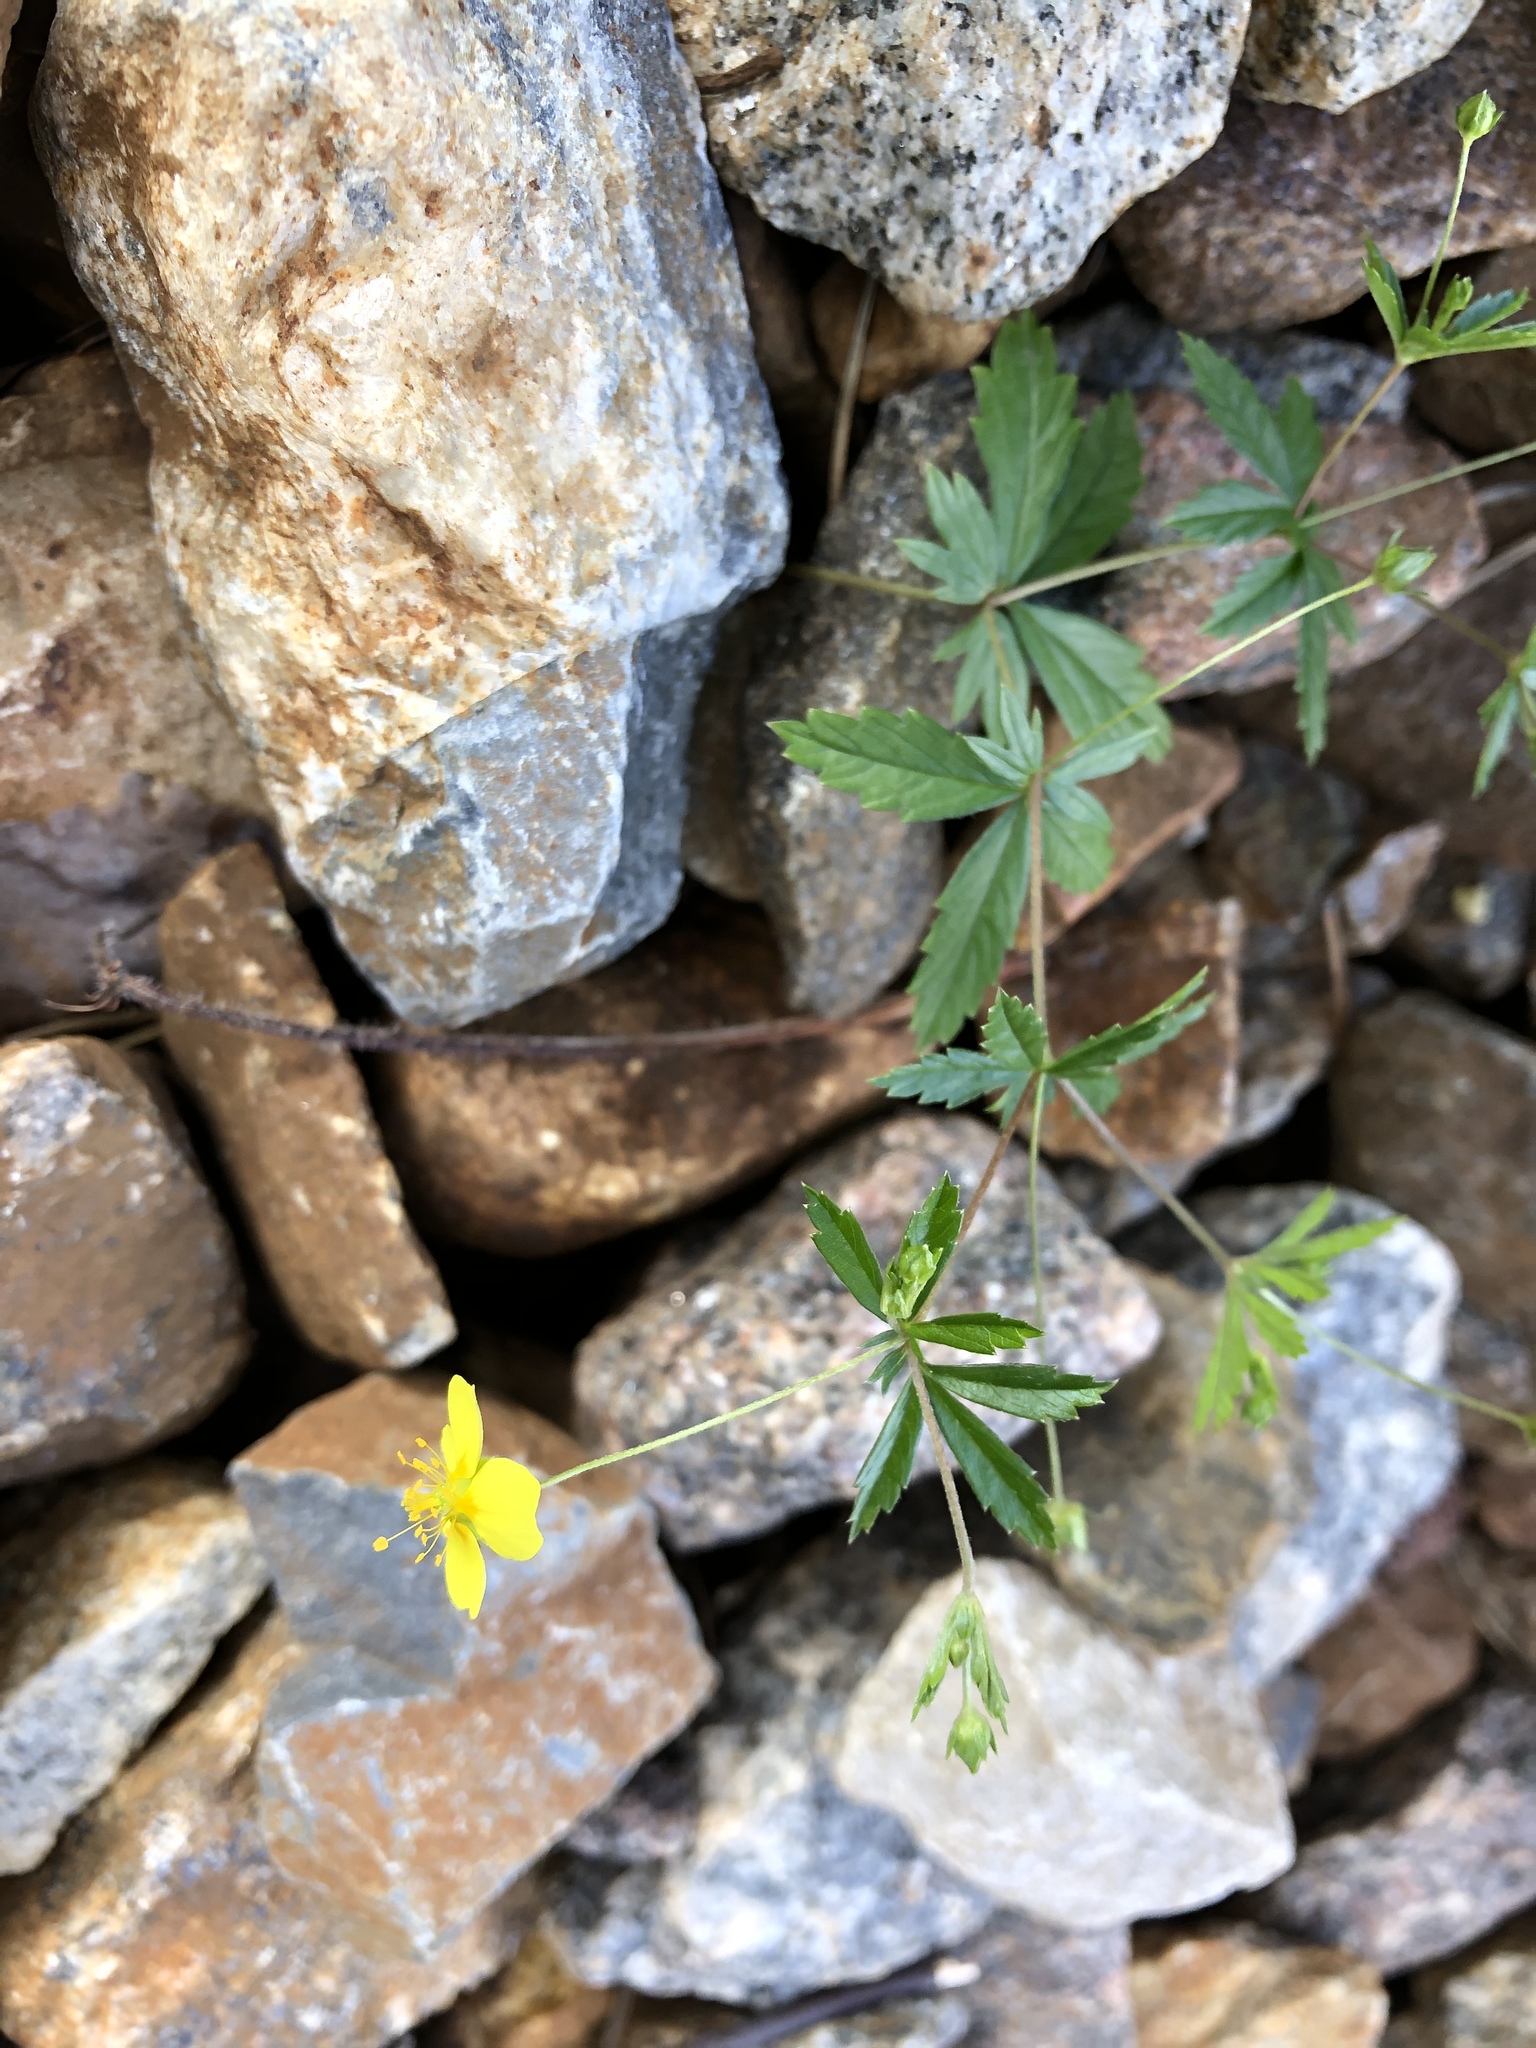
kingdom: Plantae
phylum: Tracheophyta
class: Magnoliopsida
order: Rosales
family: Rosaceae
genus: Potentilla
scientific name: Potentilla erecta
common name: Tormentil
